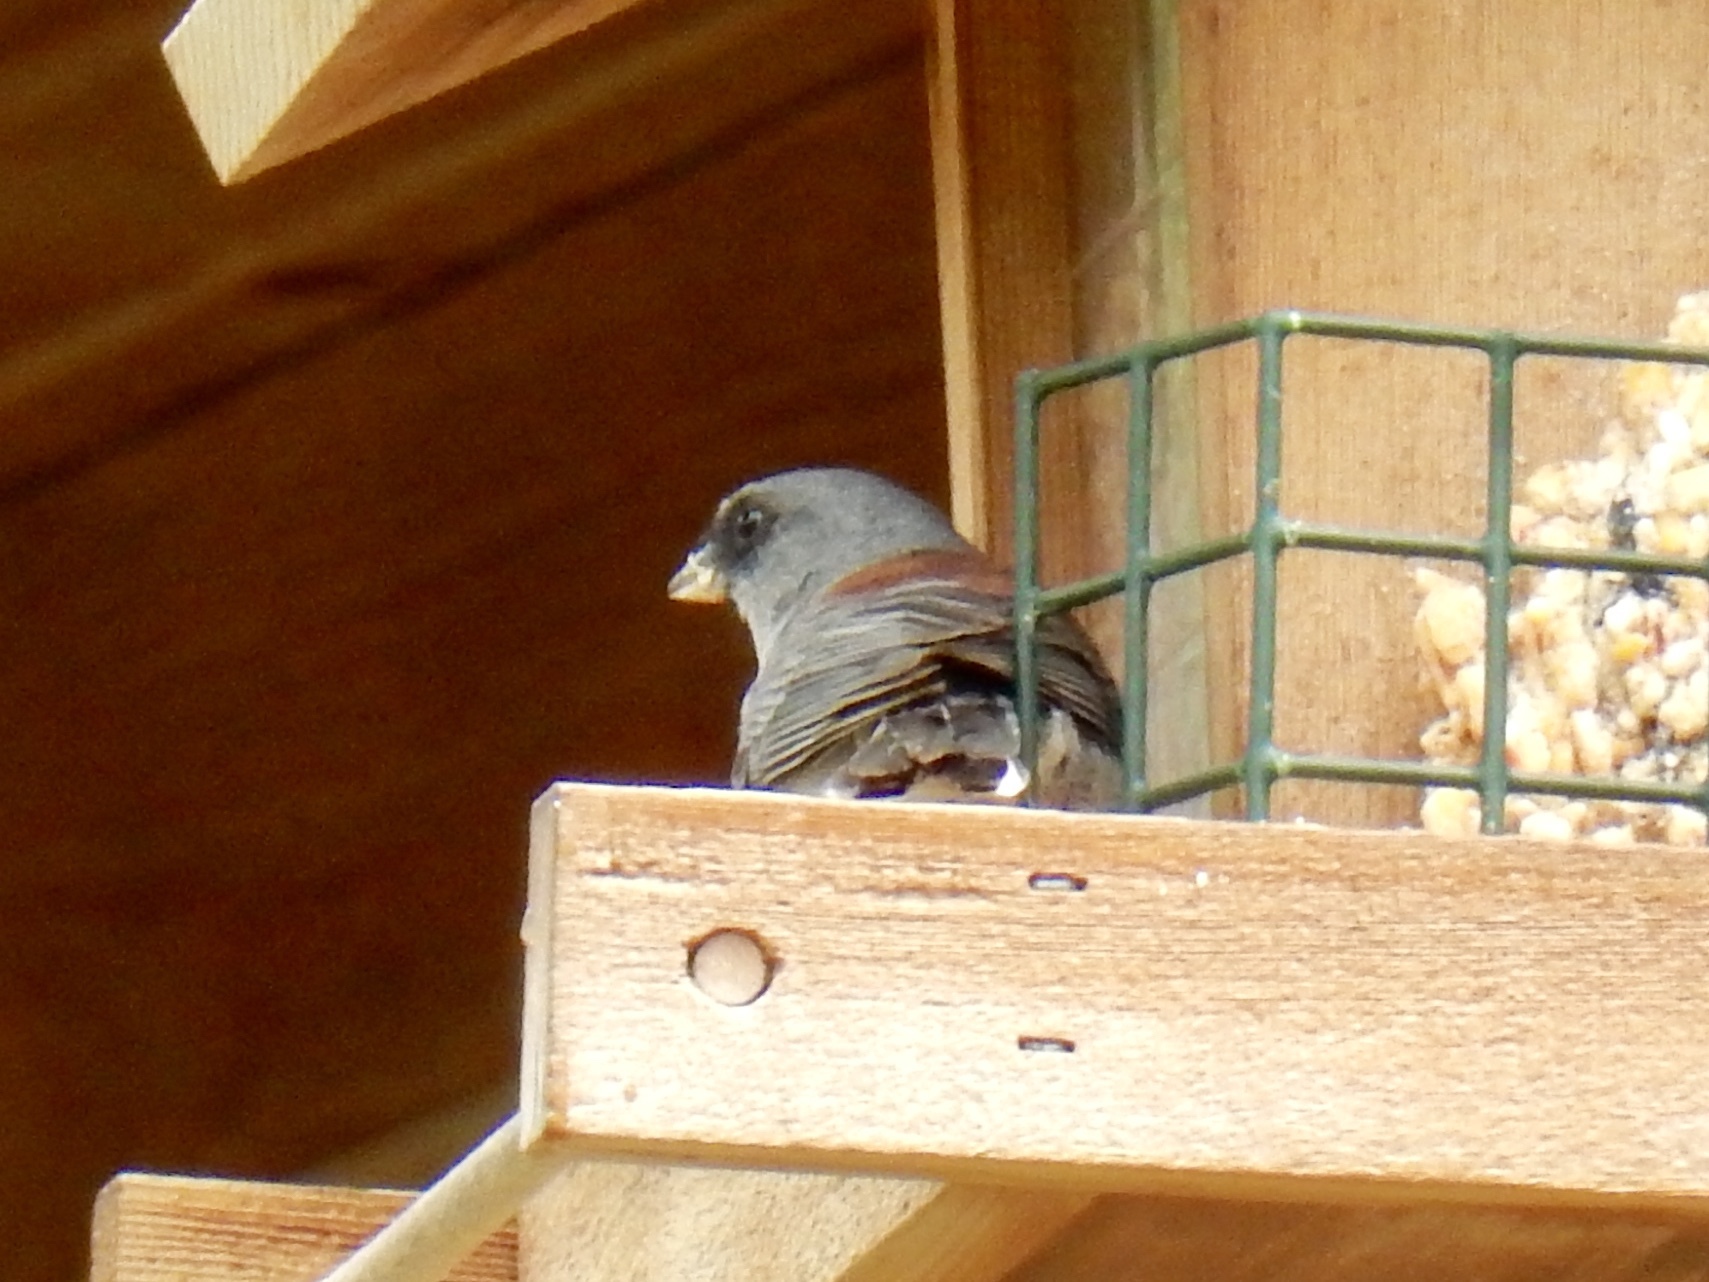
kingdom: Animalia
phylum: Chordata
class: Aves
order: Passeriformes
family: Passerellidae
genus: Junco
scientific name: Junco hyemalis
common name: Dark-eyed junco
